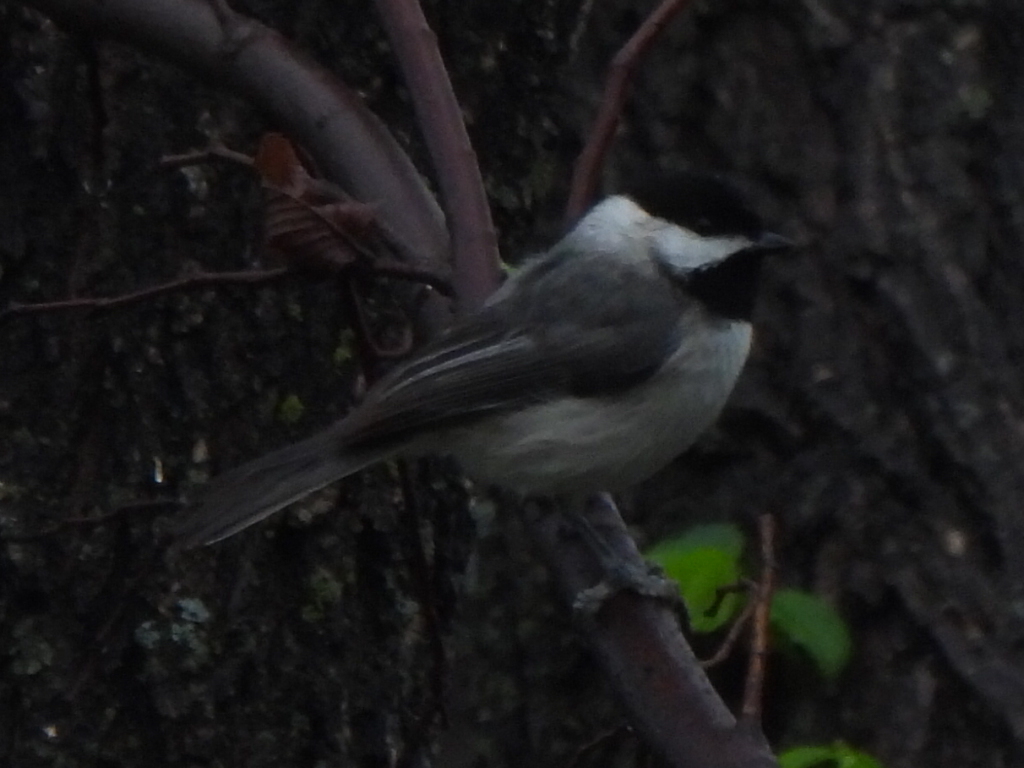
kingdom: Animalia
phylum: Chordata
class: Aves
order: Passeriformes
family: Paridae
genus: Poecile
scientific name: Poecile carolinensis
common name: Carolina chickadee
